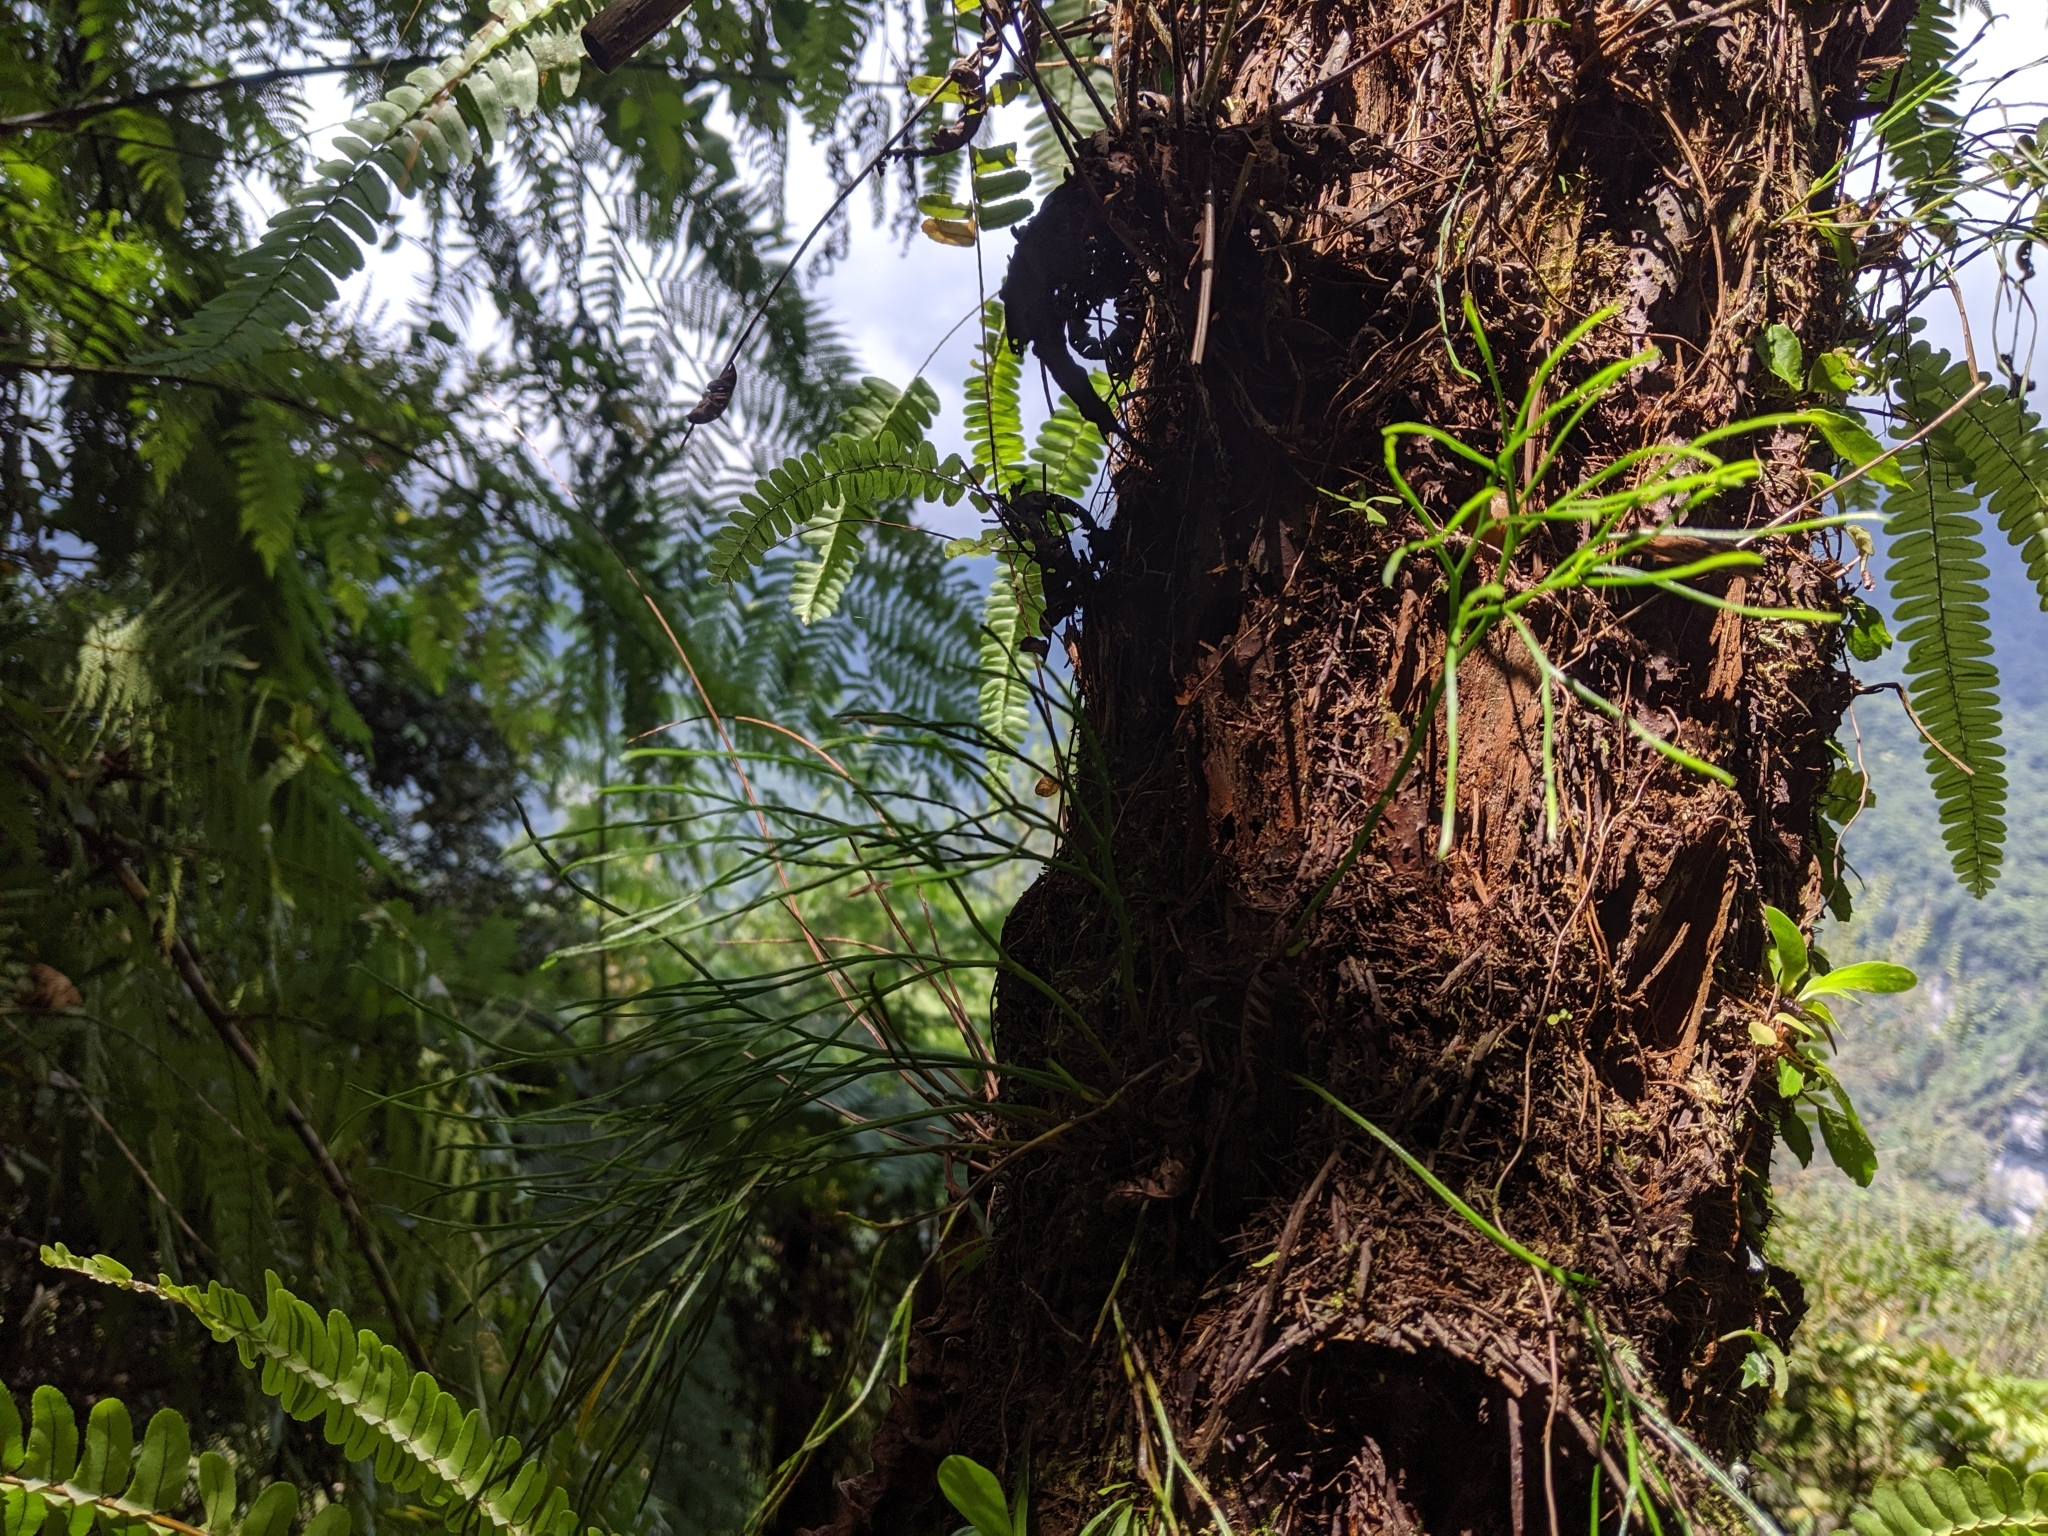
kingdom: Plantae
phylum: Tracheophyta
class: Polypodiopsida
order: Psilotales
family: Psilotaceae
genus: Psilotum
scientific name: Psilotum nudum
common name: Skeleton fork fern
